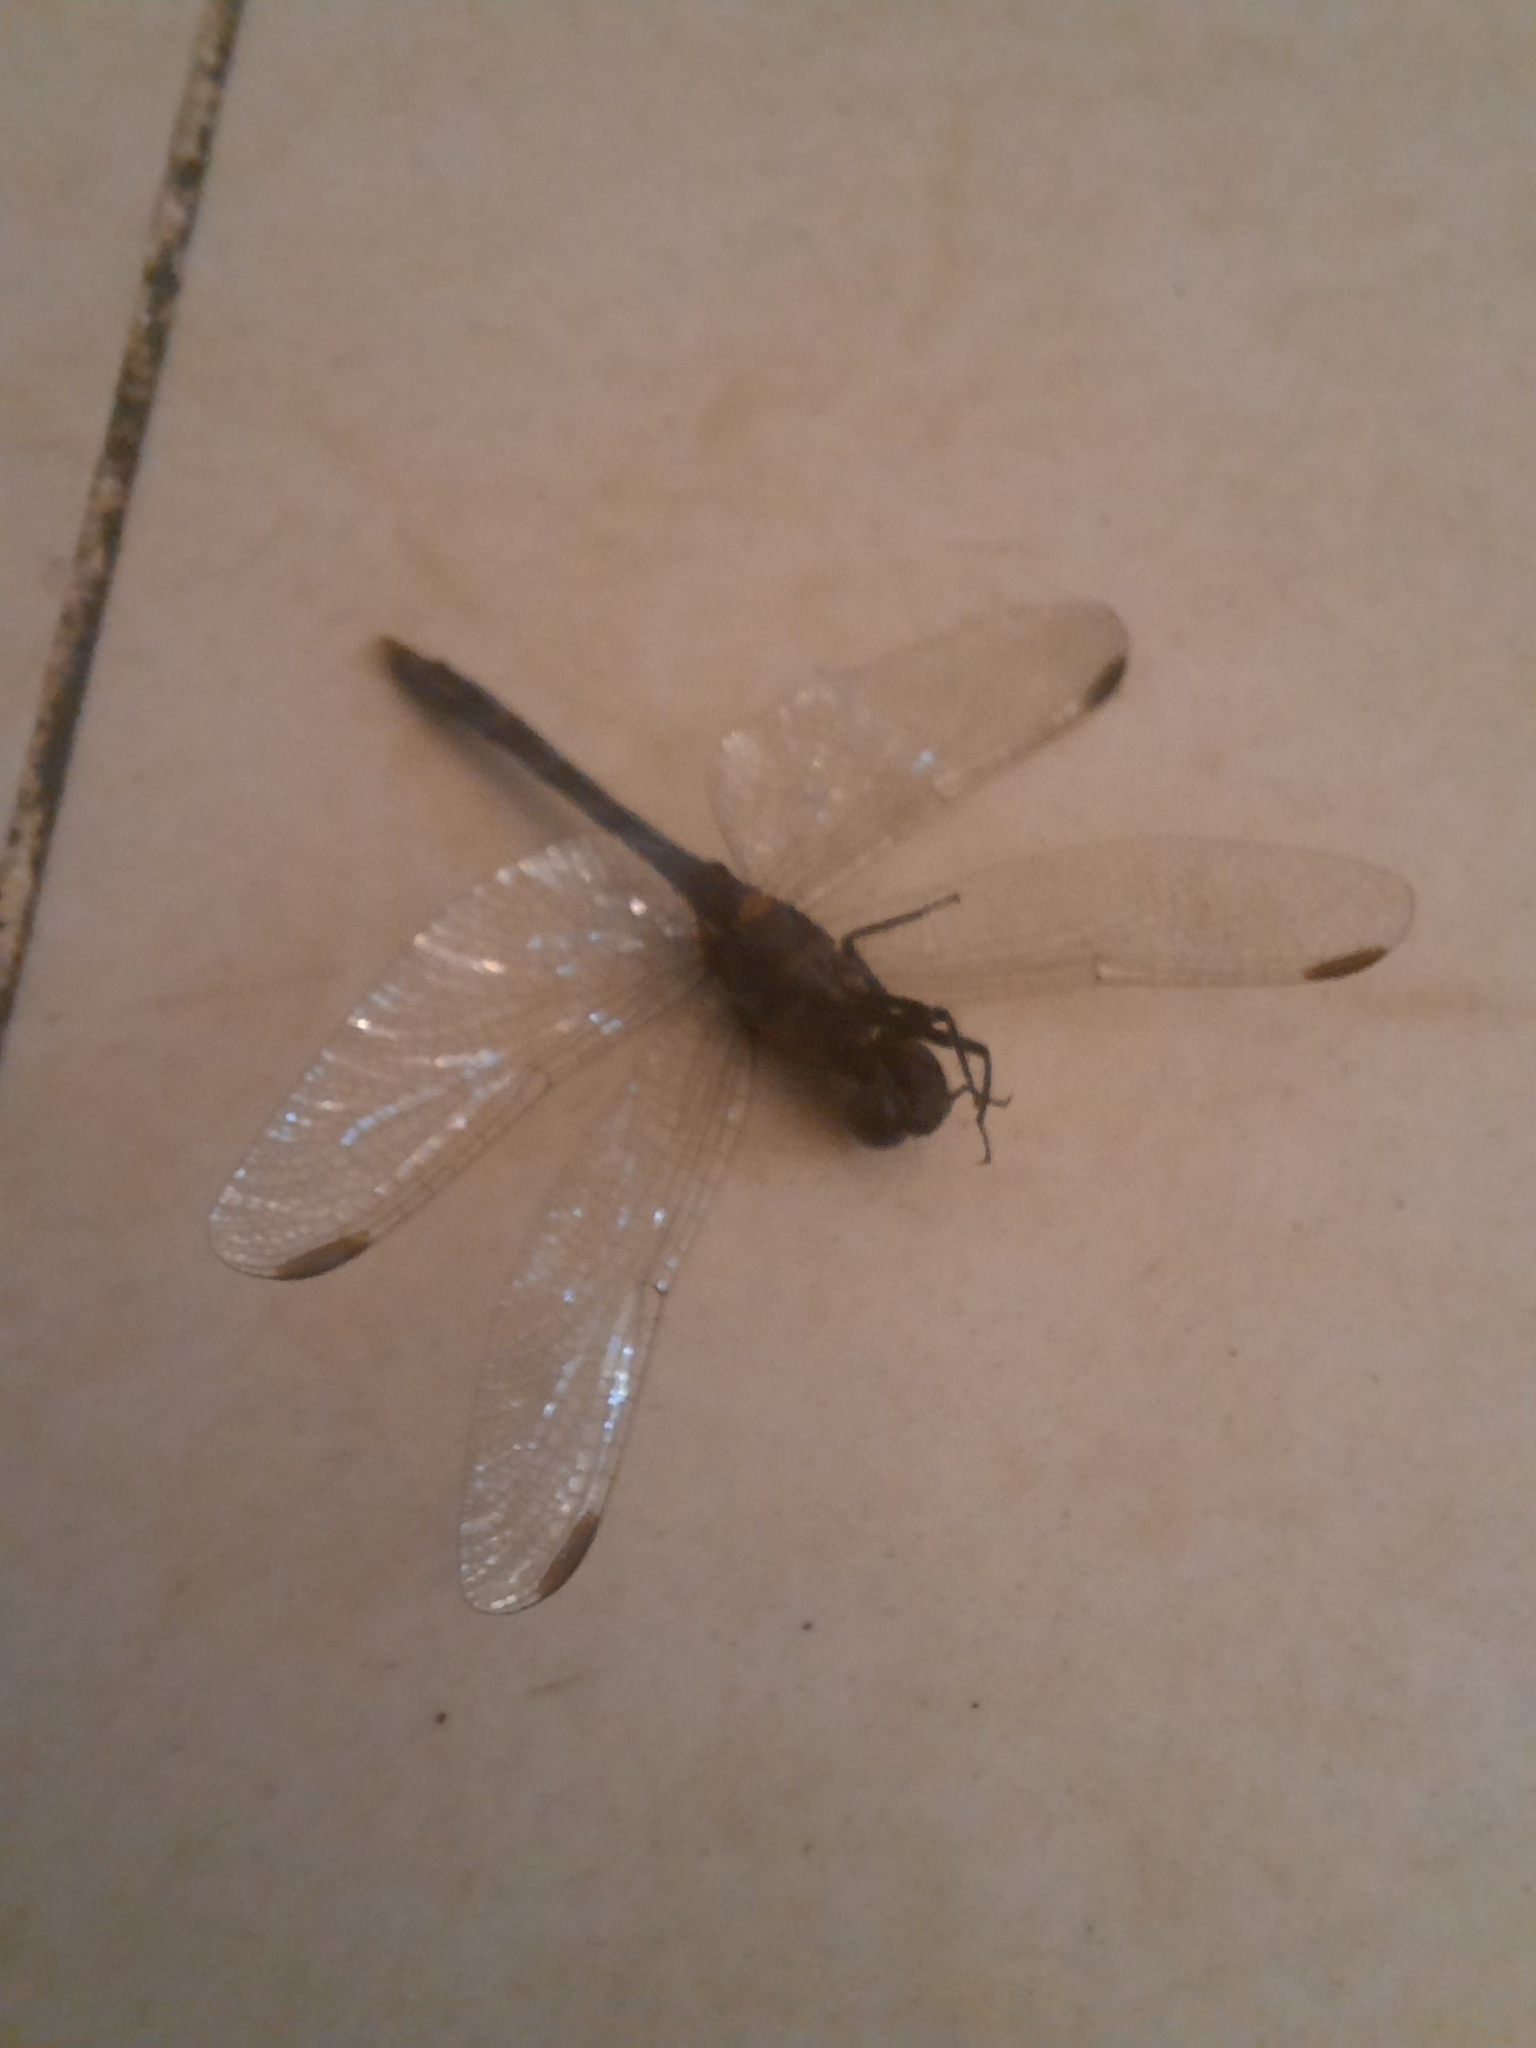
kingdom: Animalia
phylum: Arthropoda
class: Insecta
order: Odonata
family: Libellulidae
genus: Erythrodiplax
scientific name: Erythrodiplax nigricans
